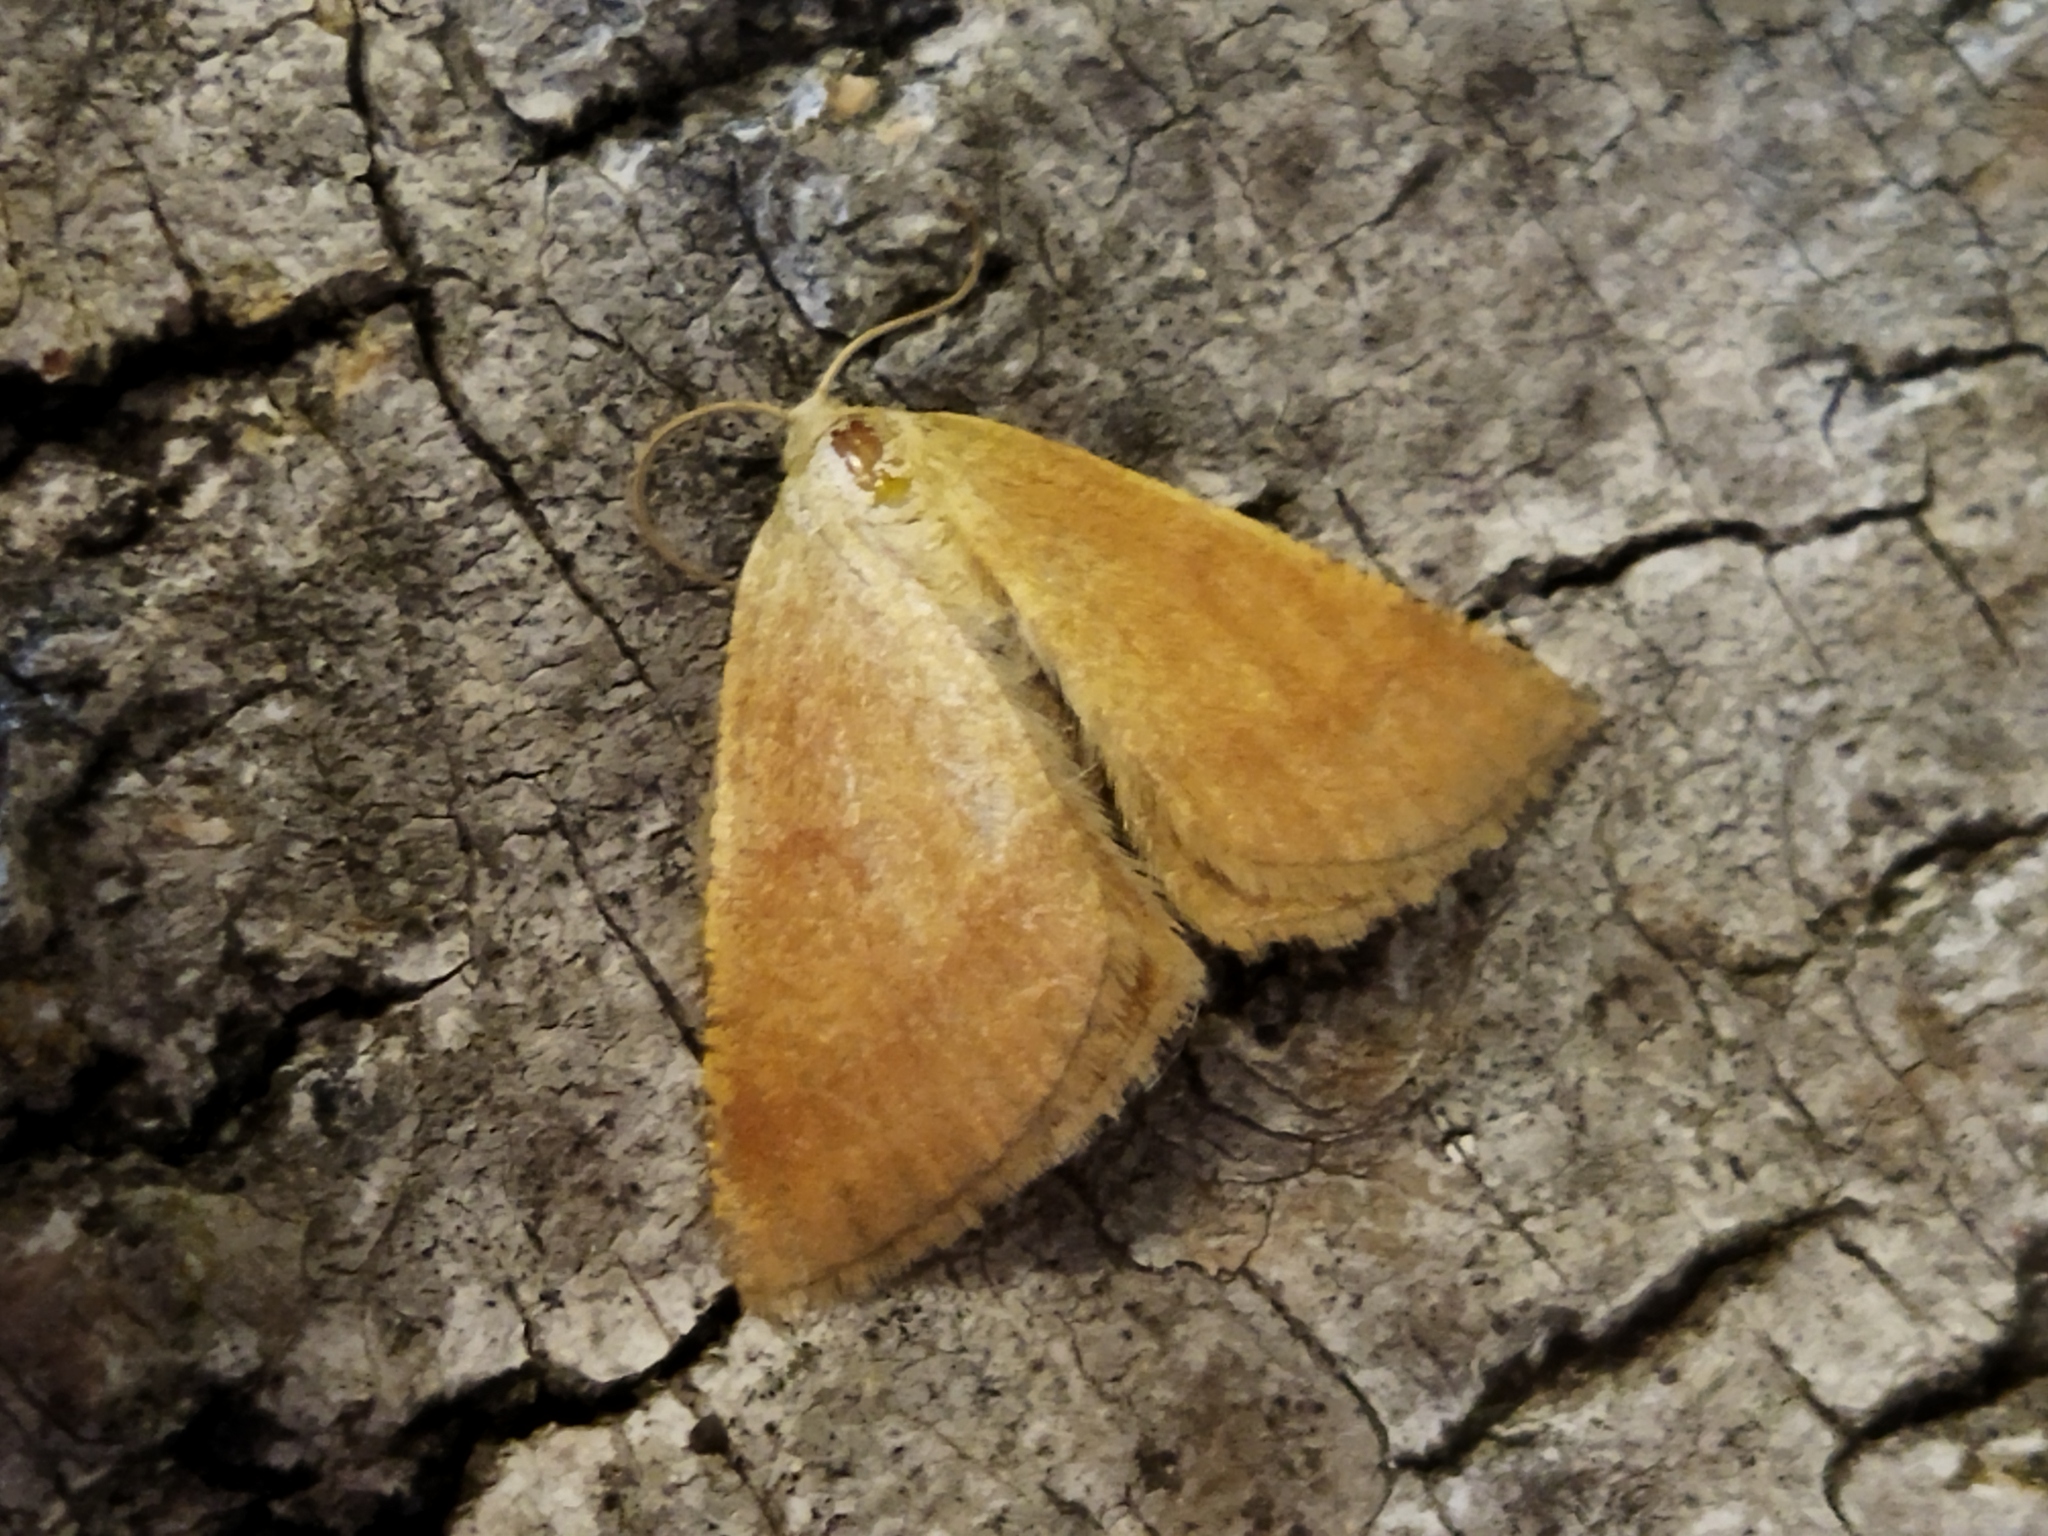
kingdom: Animalia
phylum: Arthropoda
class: Insecta
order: Lepidoptera
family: Geometridae
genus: Aplasta
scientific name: Aplasta ononaria
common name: Rest harrow
